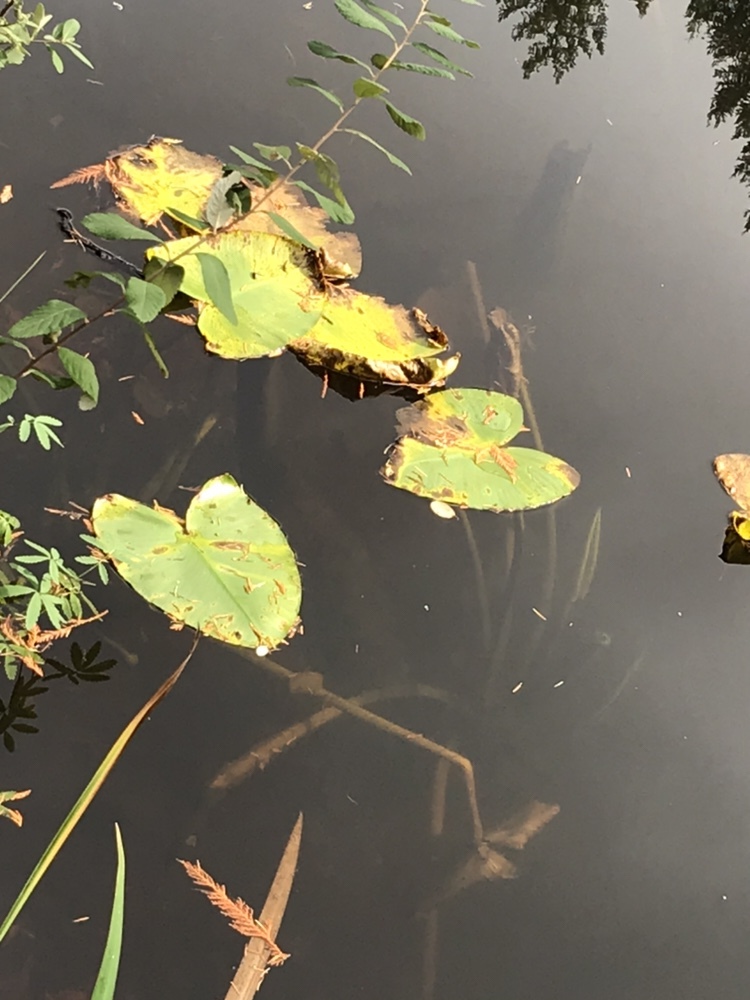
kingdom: Plantae
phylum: Tracheophyta
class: Magnoliopsida
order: Nymphaeales
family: Nymphaeaceae
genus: Nuphar
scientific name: Nuphar polysepala
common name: Rocky mountain cow-lily
